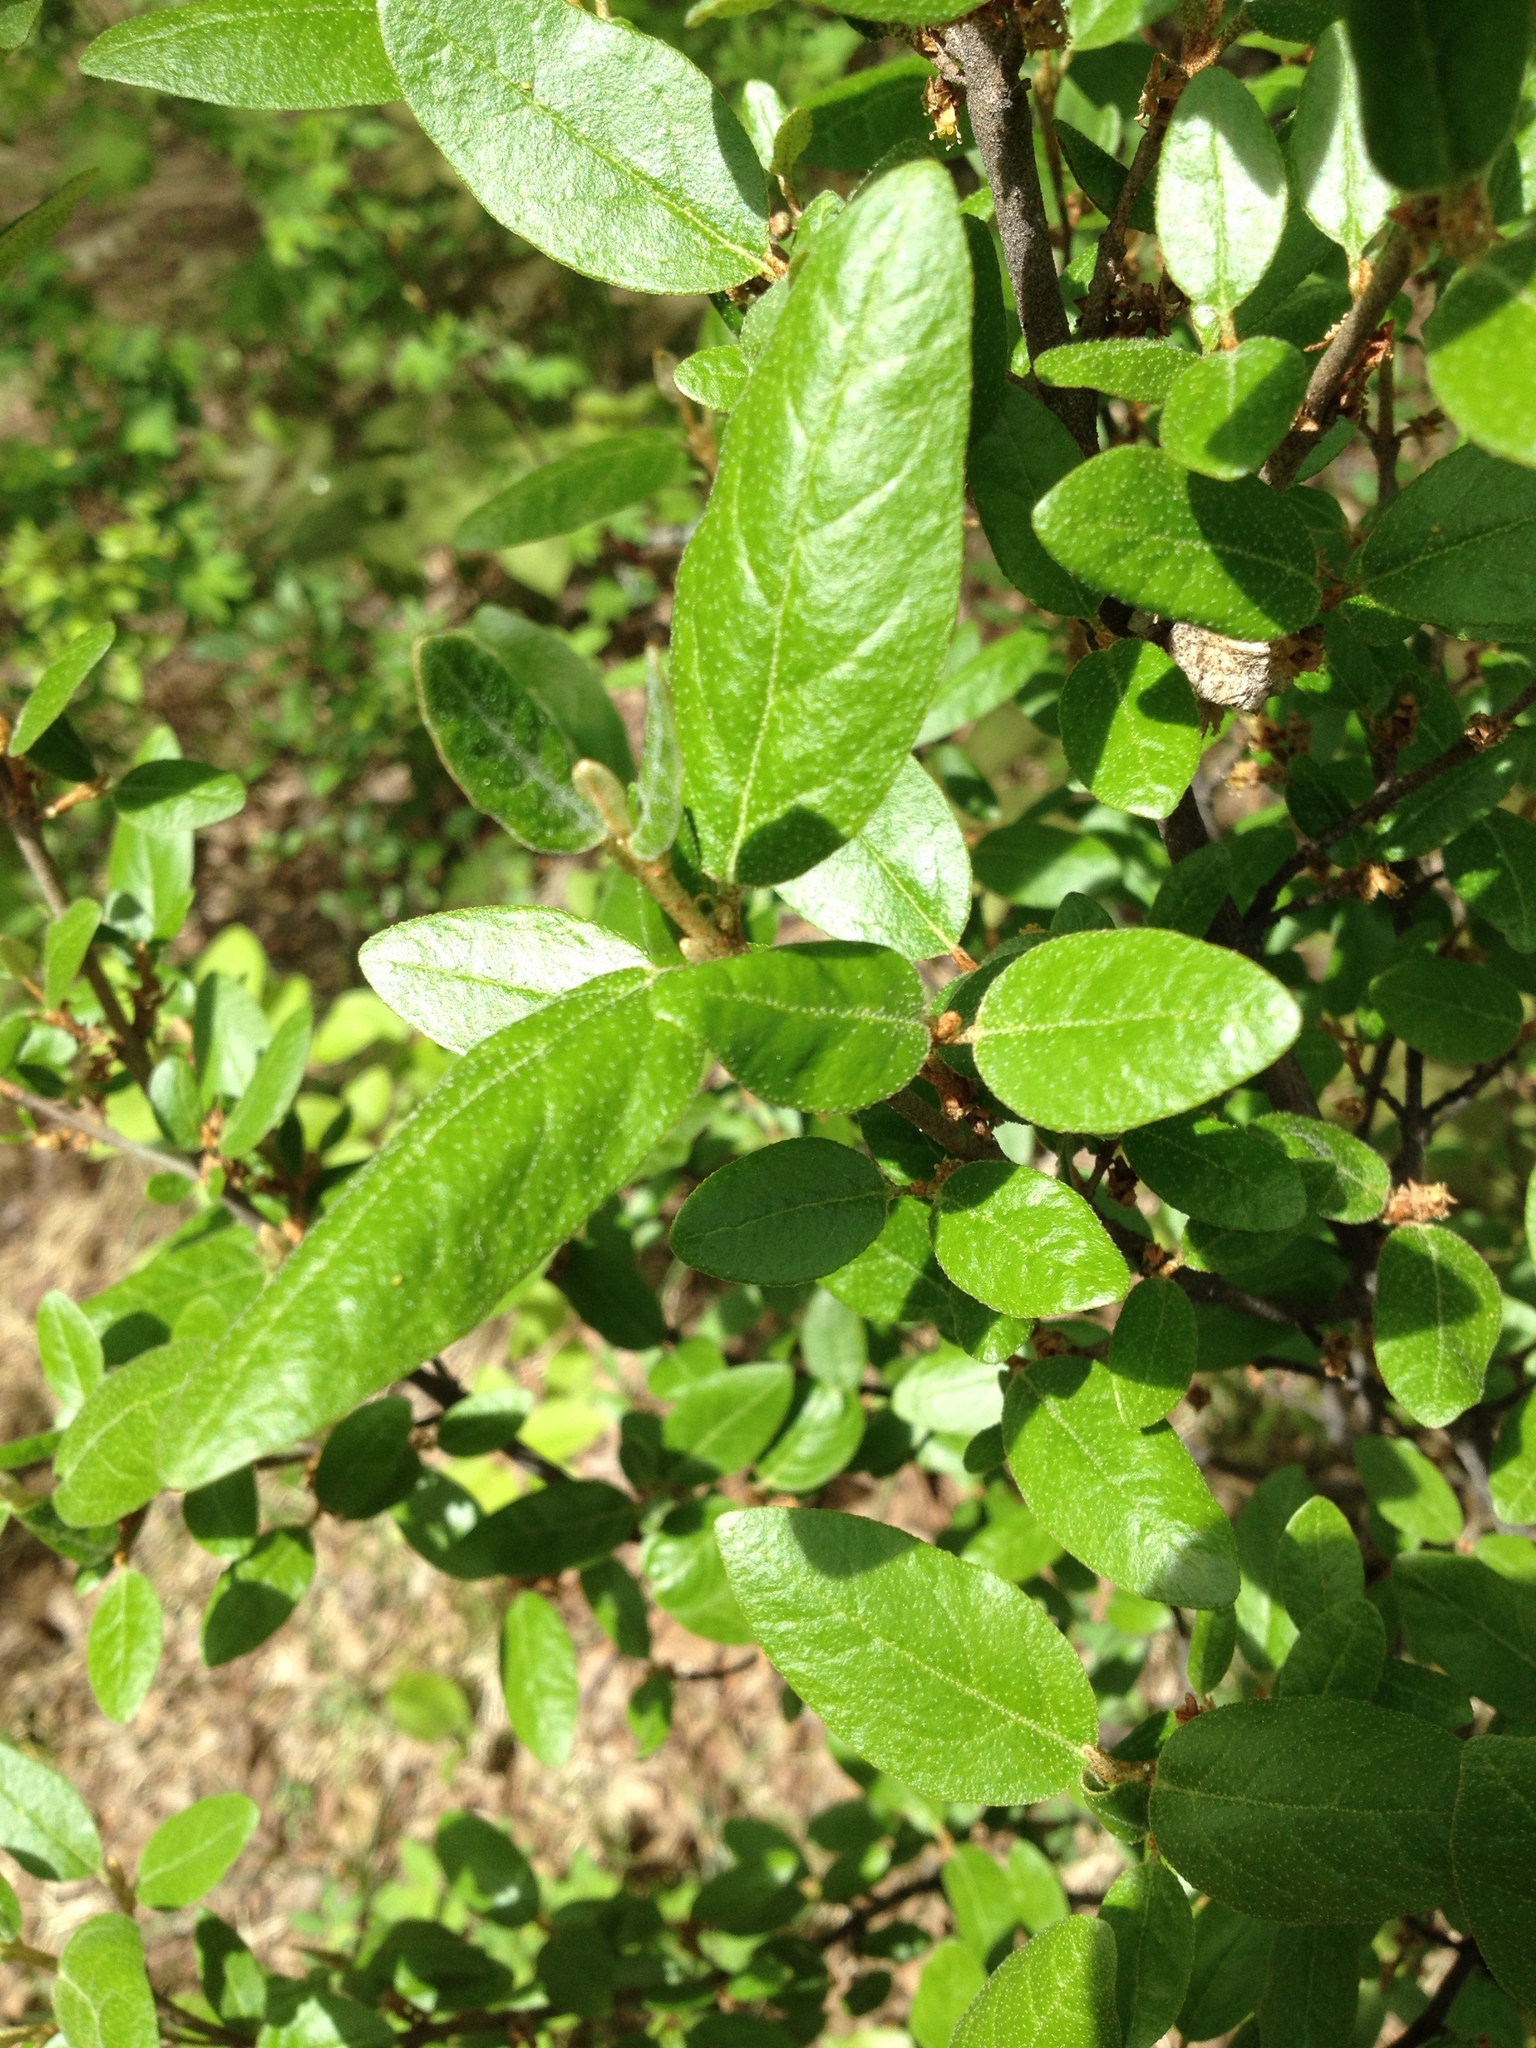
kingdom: Plantae
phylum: Tracheophyta
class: Magnoliopsida
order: Rosales
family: Elaeagnaceae
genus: Shepherdia
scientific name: Shepherdia canadensis
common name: Soapberry
